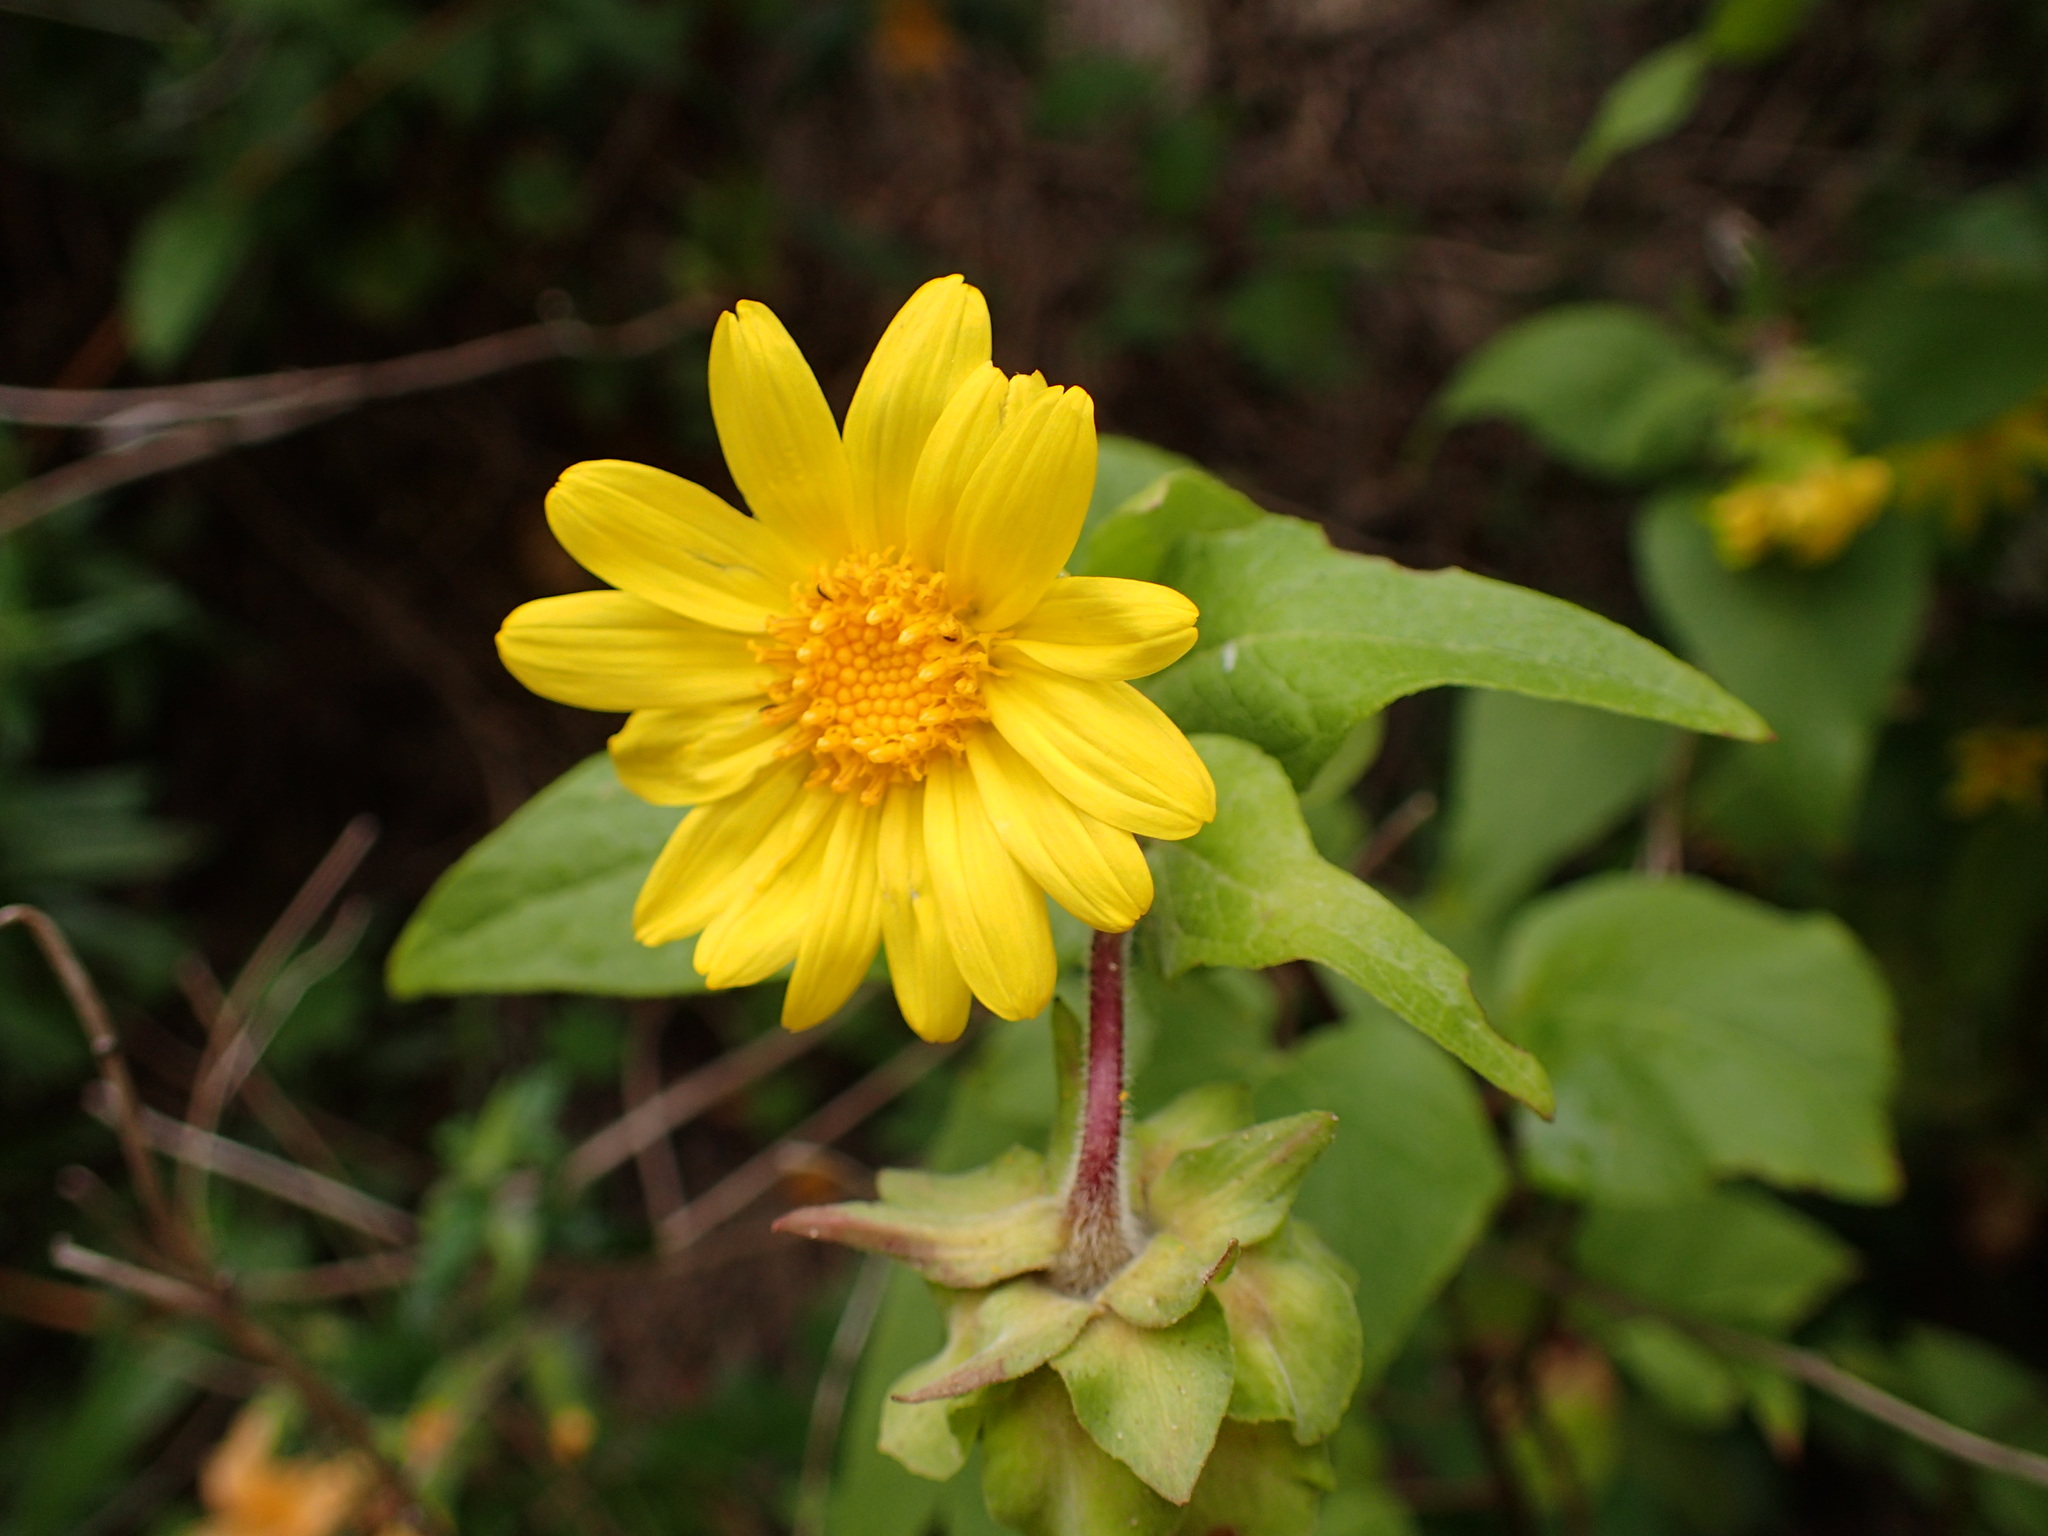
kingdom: Plantae
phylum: Tracheophyta
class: Magnoliopsida
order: Asterales
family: Asteraceae
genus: Venegasia
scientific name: Venegasia carpesioides
